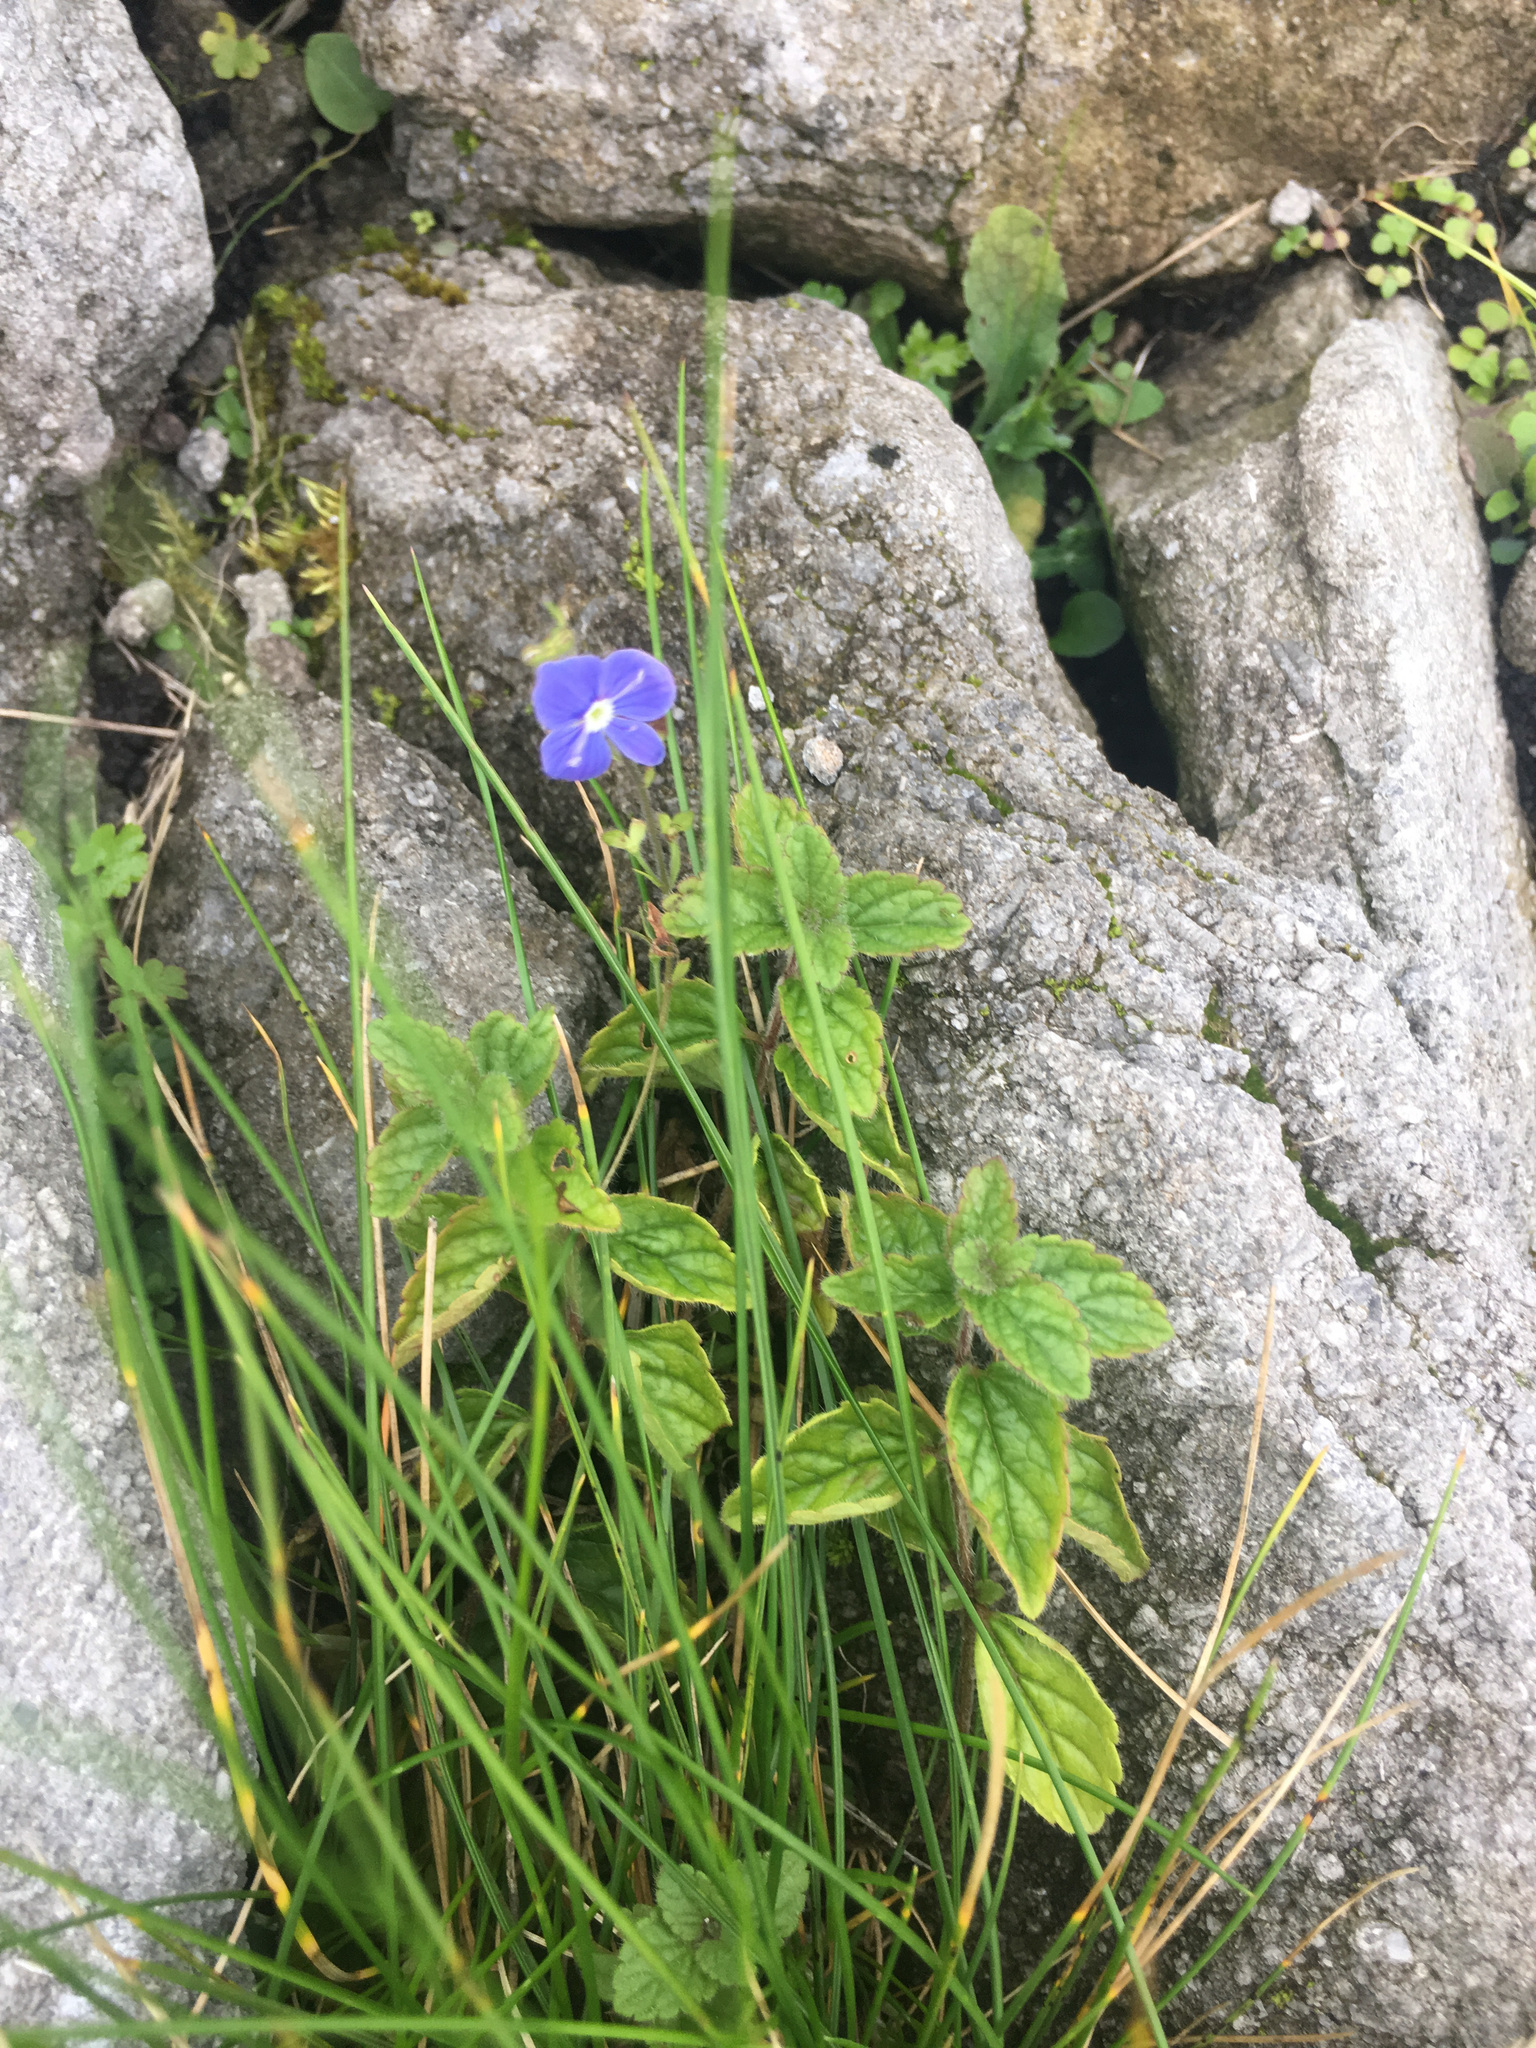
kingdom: Plantae
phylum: Tracheophyta
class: Magnoliopsida
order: Lamiales
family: Plantaginaceae
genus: Veronica
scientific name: Veronica chamaedrys
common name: Germander speedwell
